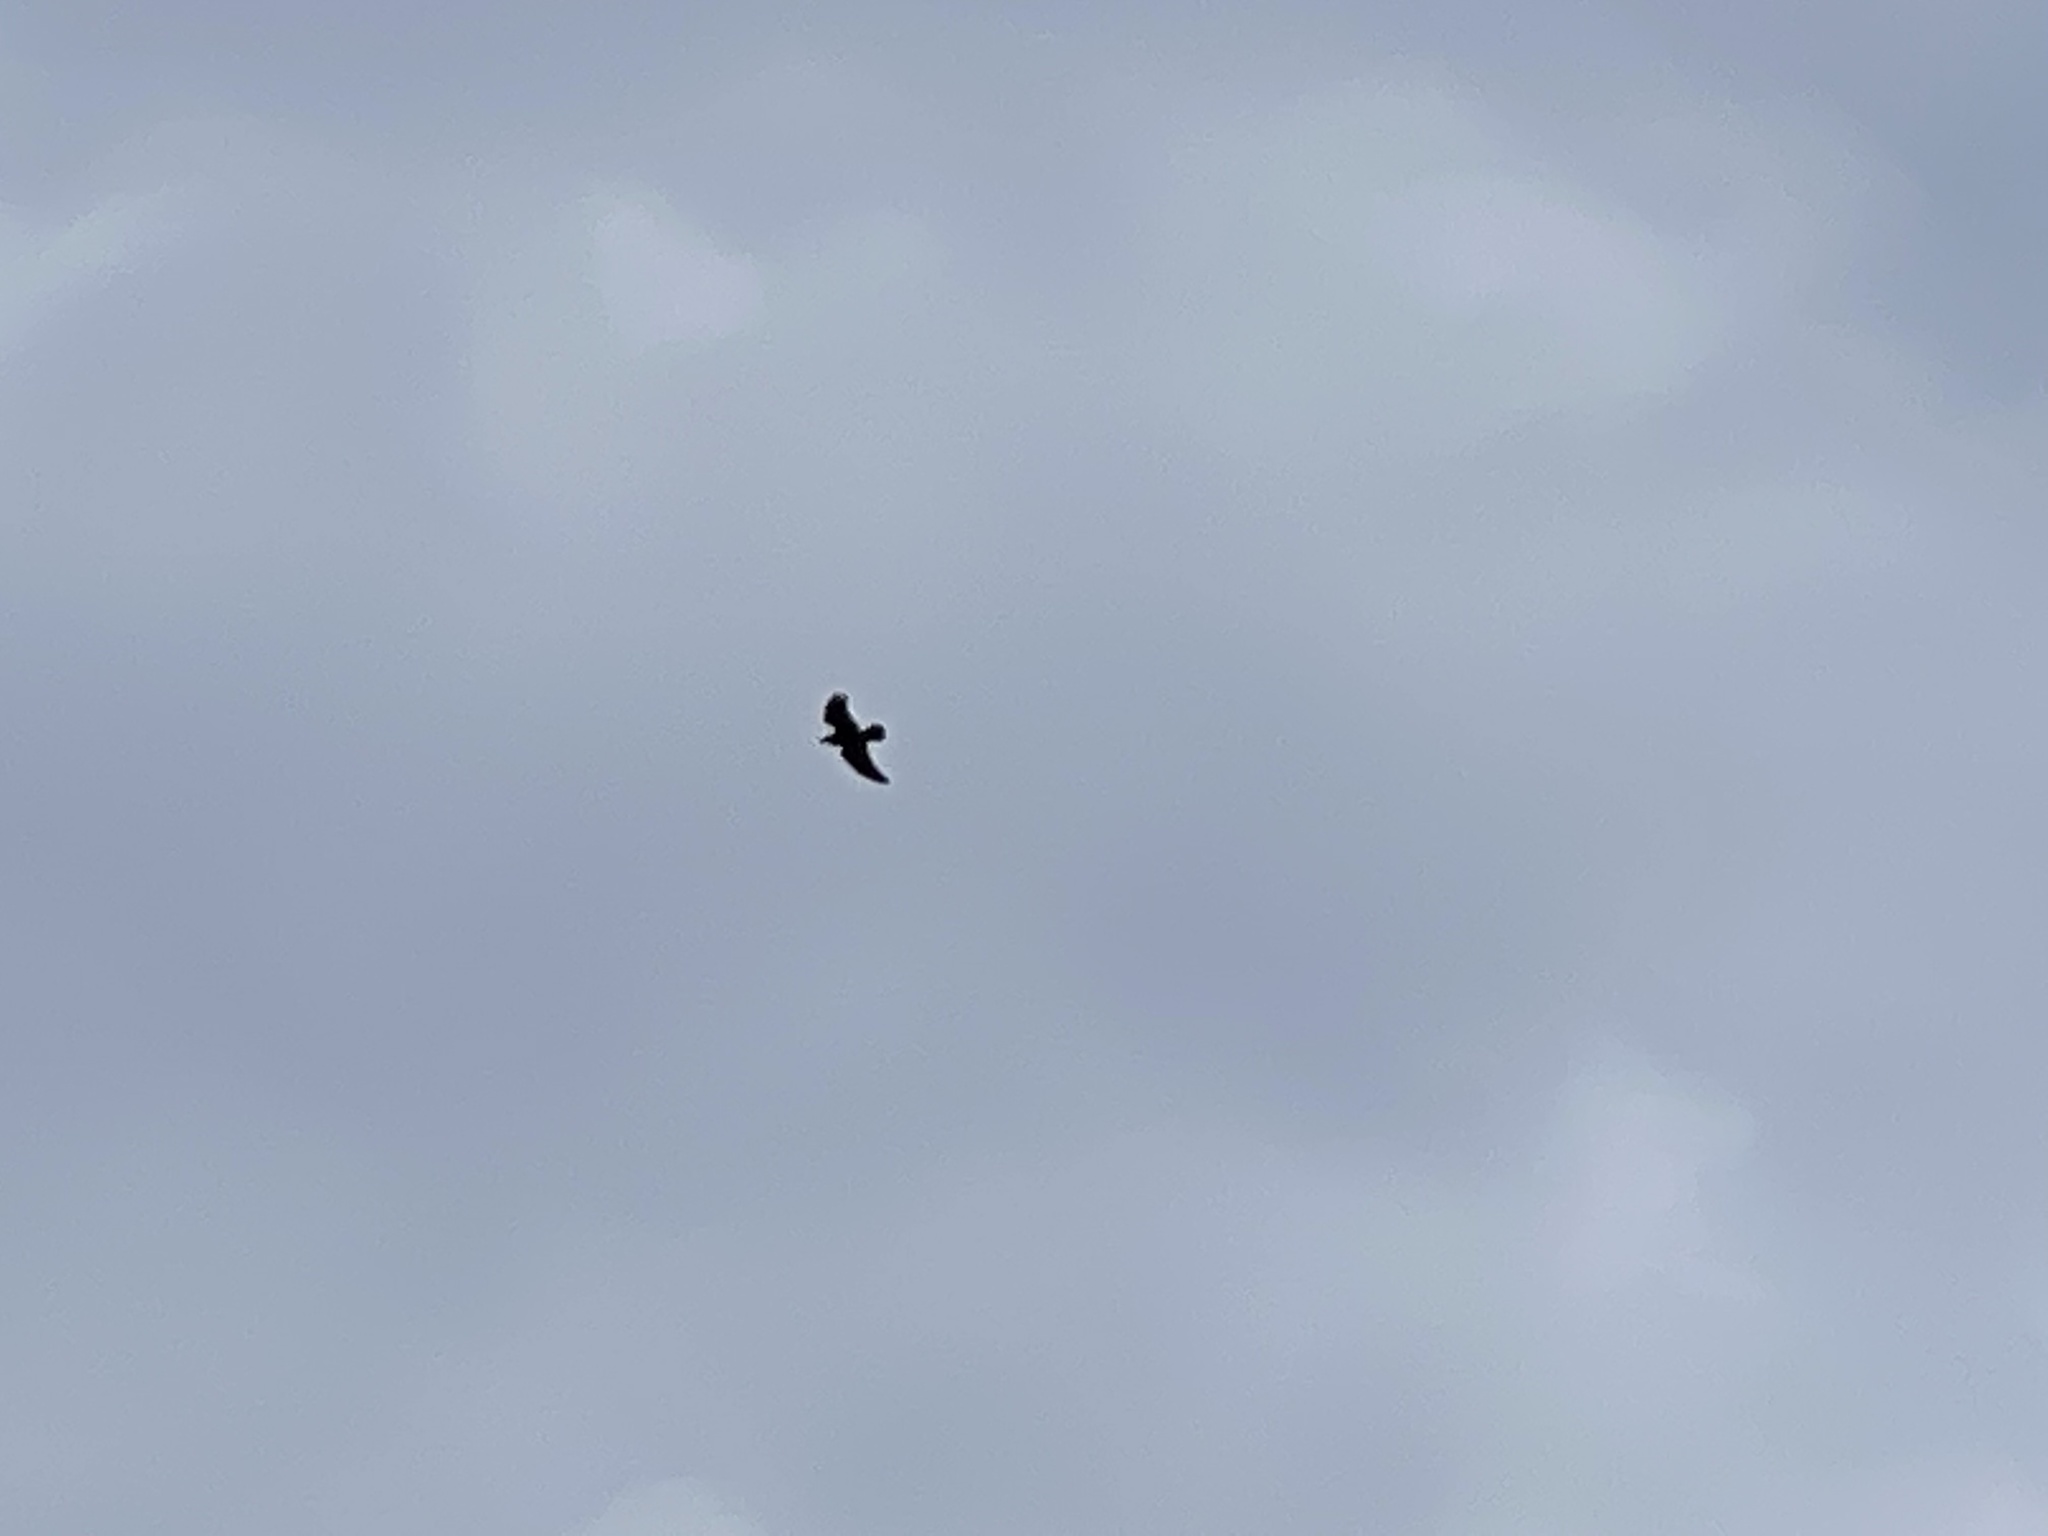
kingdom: Animalia
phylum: Chordata
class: Aves
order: Passeriformes
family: Corvidae
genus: Corvus
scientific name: Corvus corax
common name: Common raven
